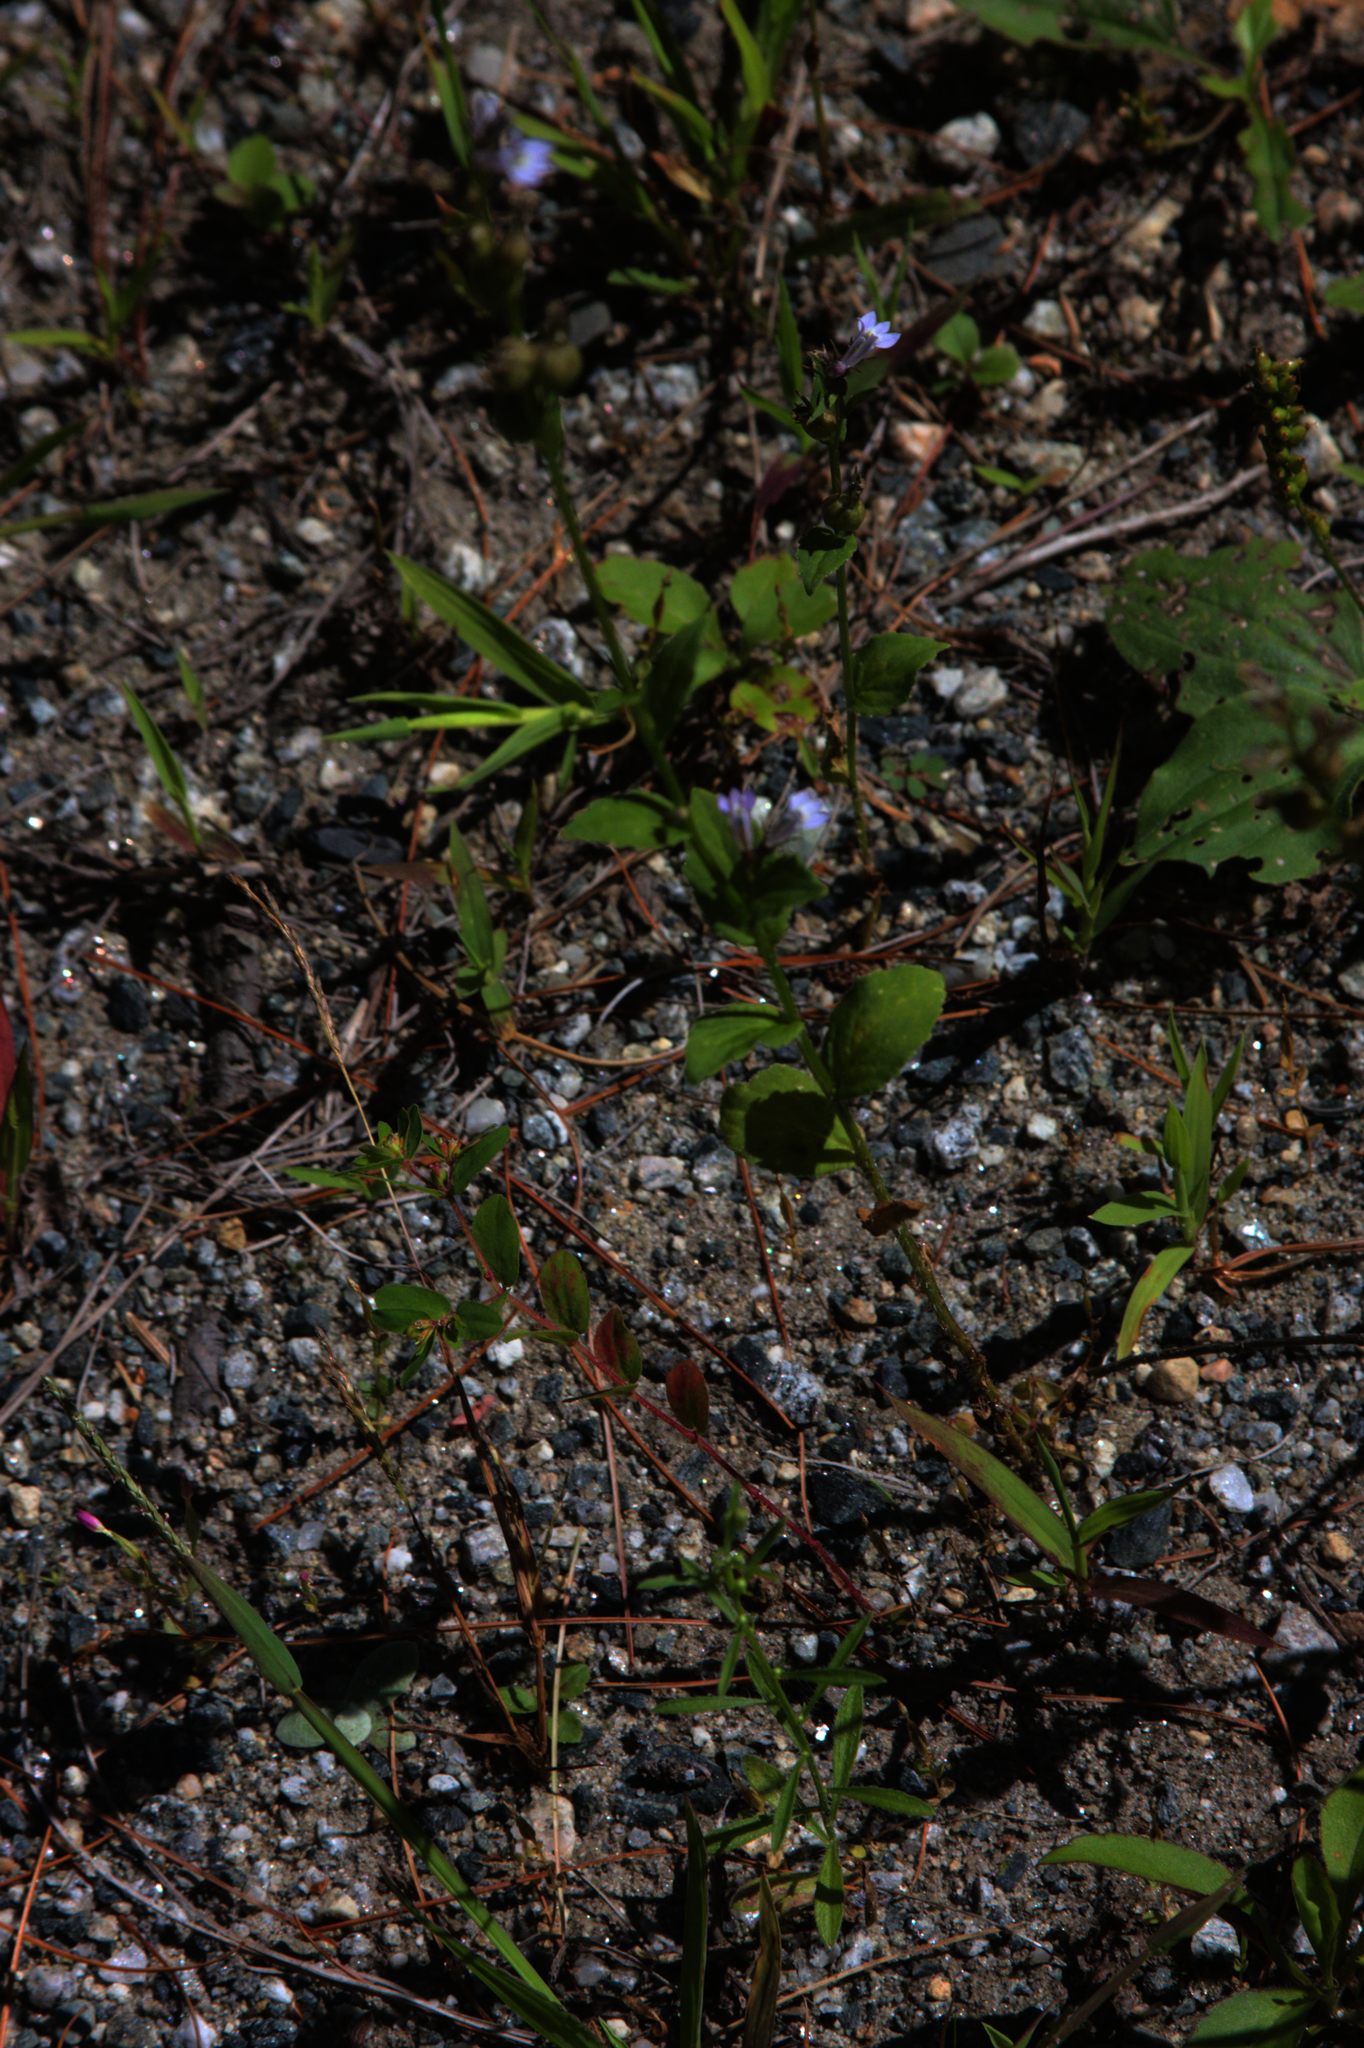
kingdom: Plantae
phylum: Tracheophyta
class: Magnoliopsida
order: Asterales
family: Campanulaceae
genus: Lobelia
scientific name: Lobelia inflata
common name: Indian tobacco
